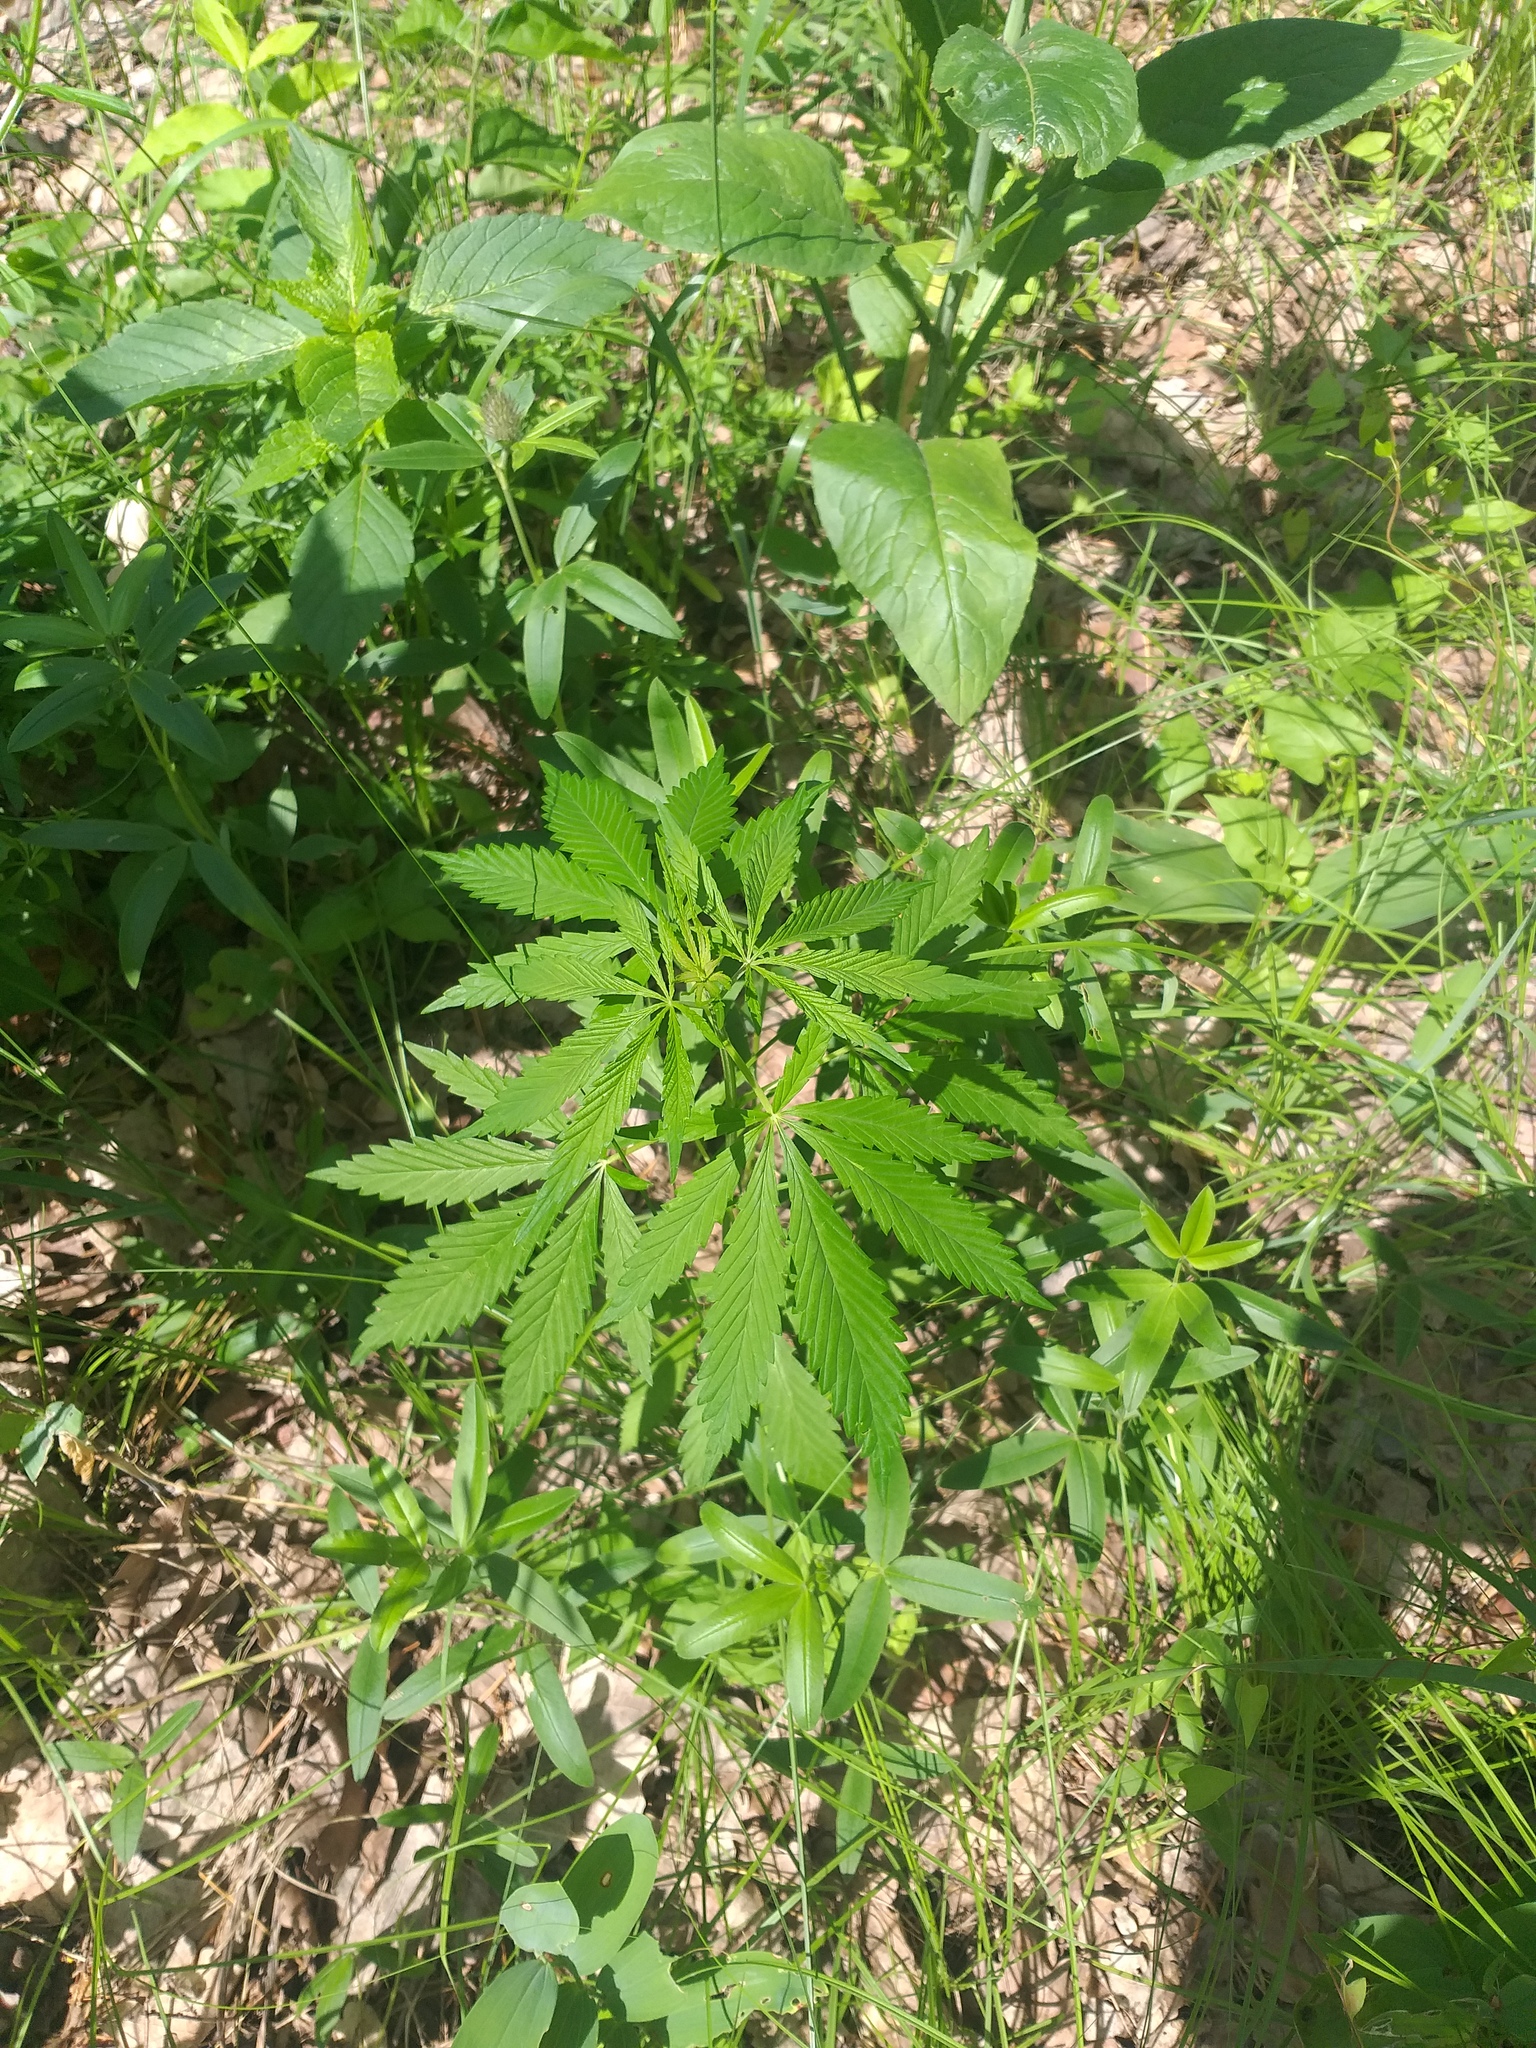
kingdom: Plantae
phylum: Tracheophyta
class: Magnoliopsida
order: Rosales
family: Cannabaceae
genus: Cannabis
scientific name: Cannabis sativa
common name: Hemp
